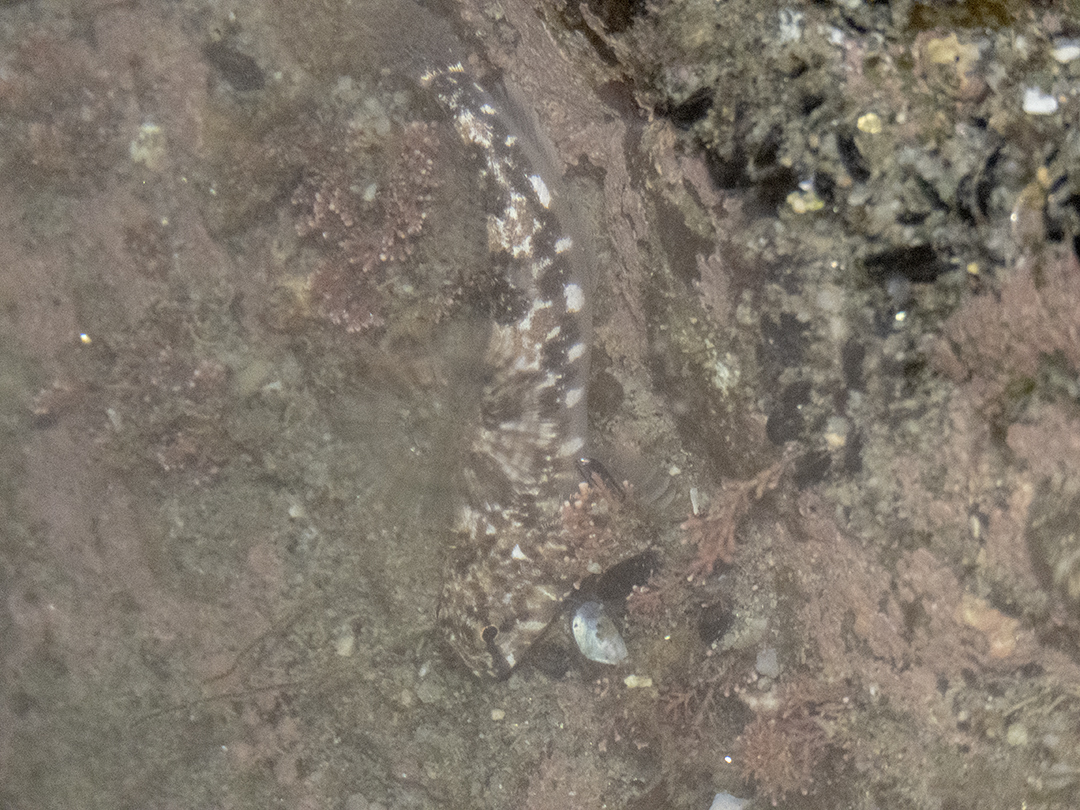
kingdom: Animalia
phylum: Chordata
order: Perciformes
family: Tripterygiidae
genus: Bellapiscis
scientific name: Bellapiscis medius
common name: Twister
